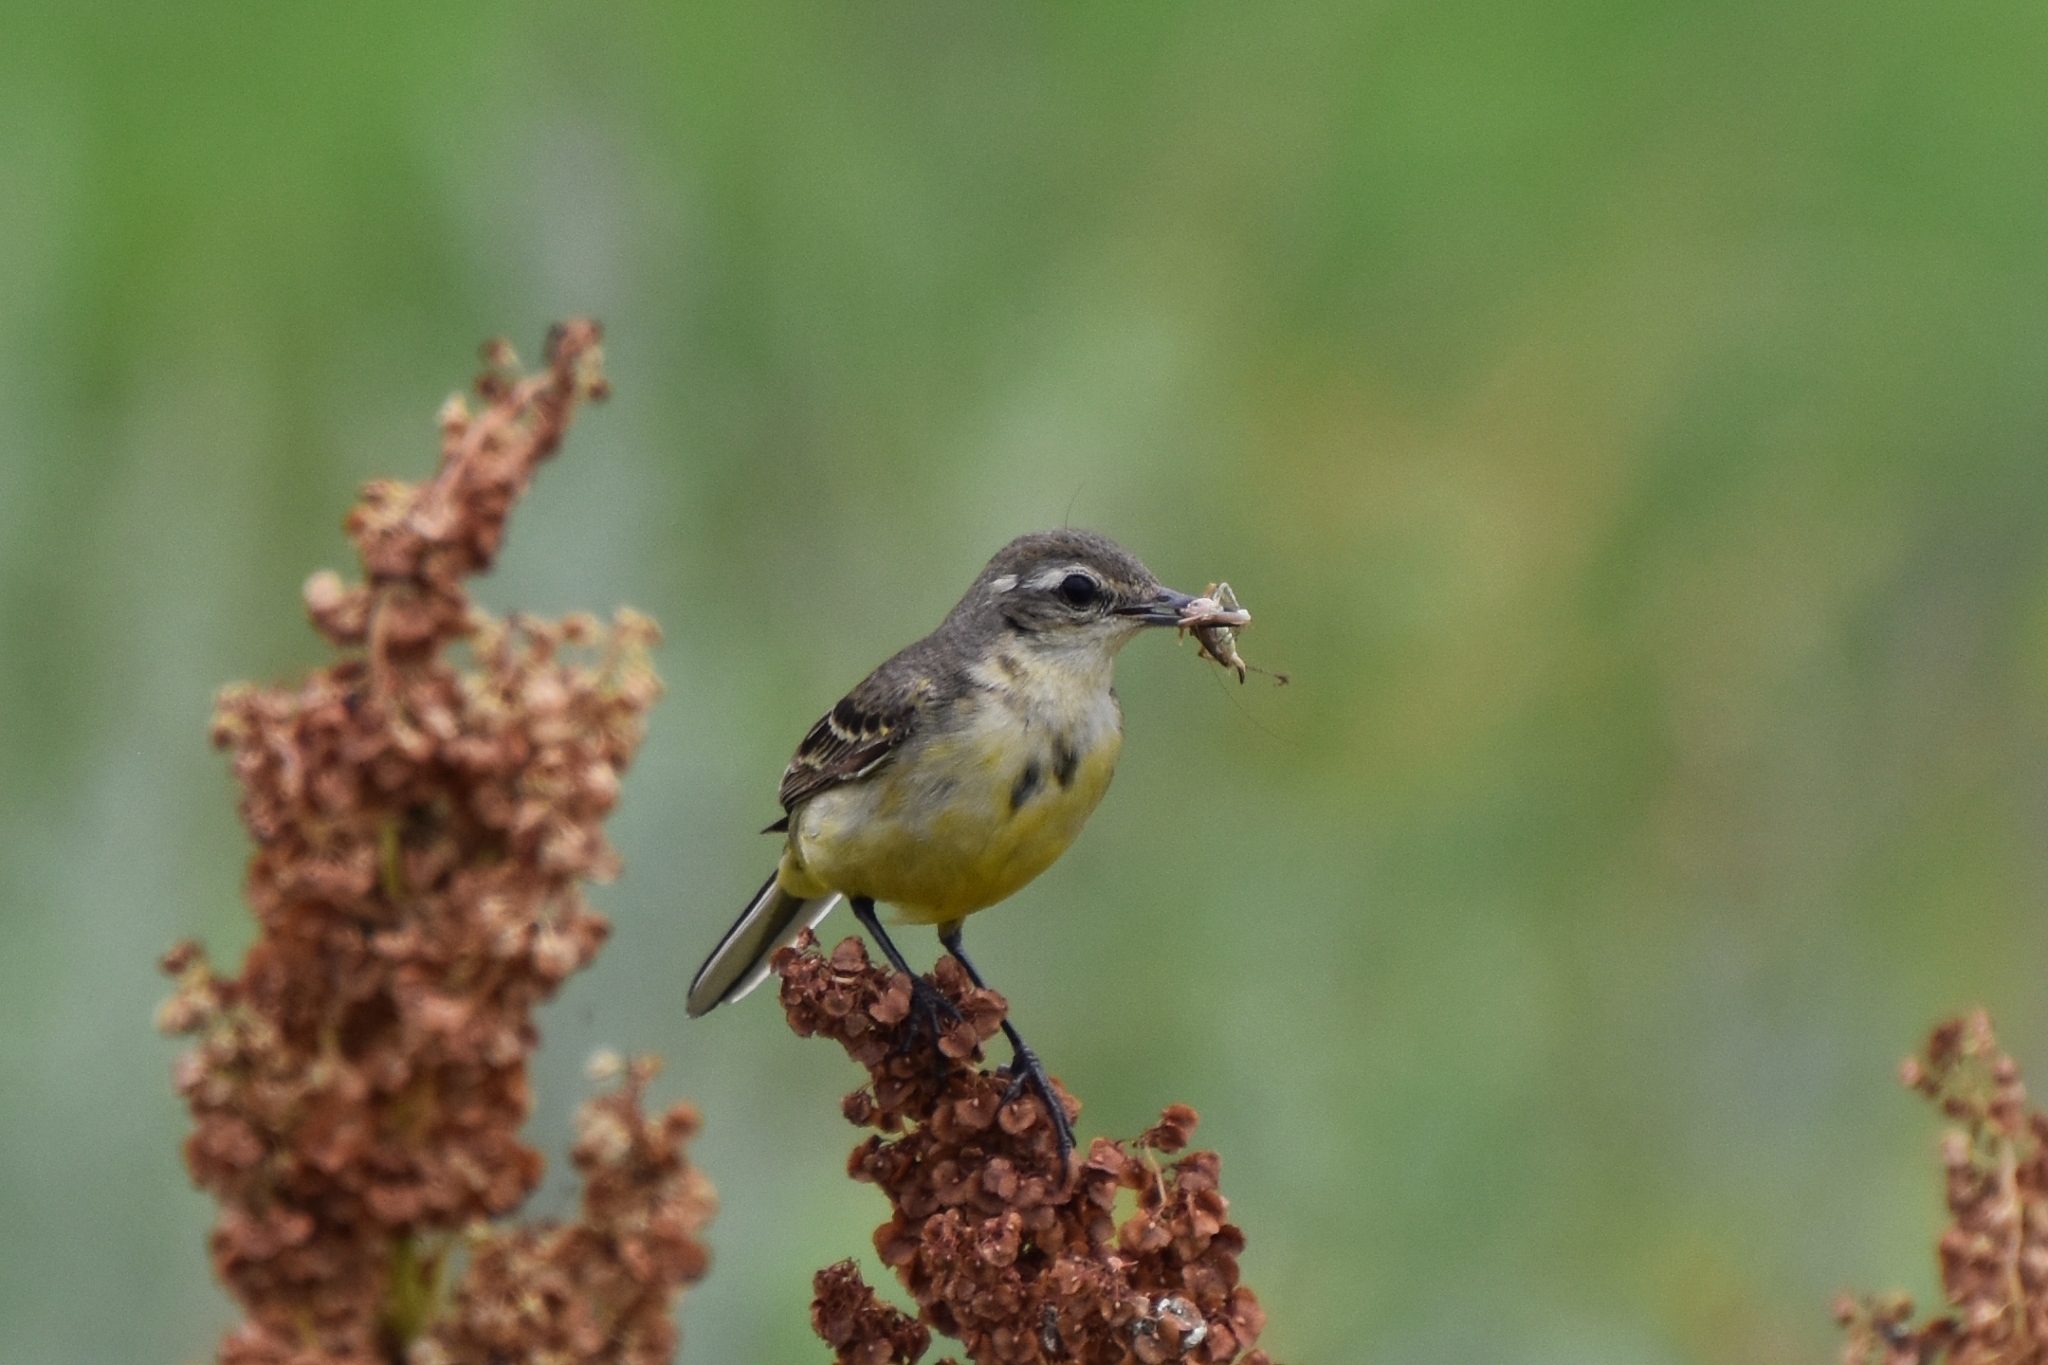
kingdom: Animalia
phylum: Chordata
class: Aves
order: Passeriformes
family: Motacillidae
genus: Motacilla
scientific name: Motacilla flava
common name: Western yellow wagtail
